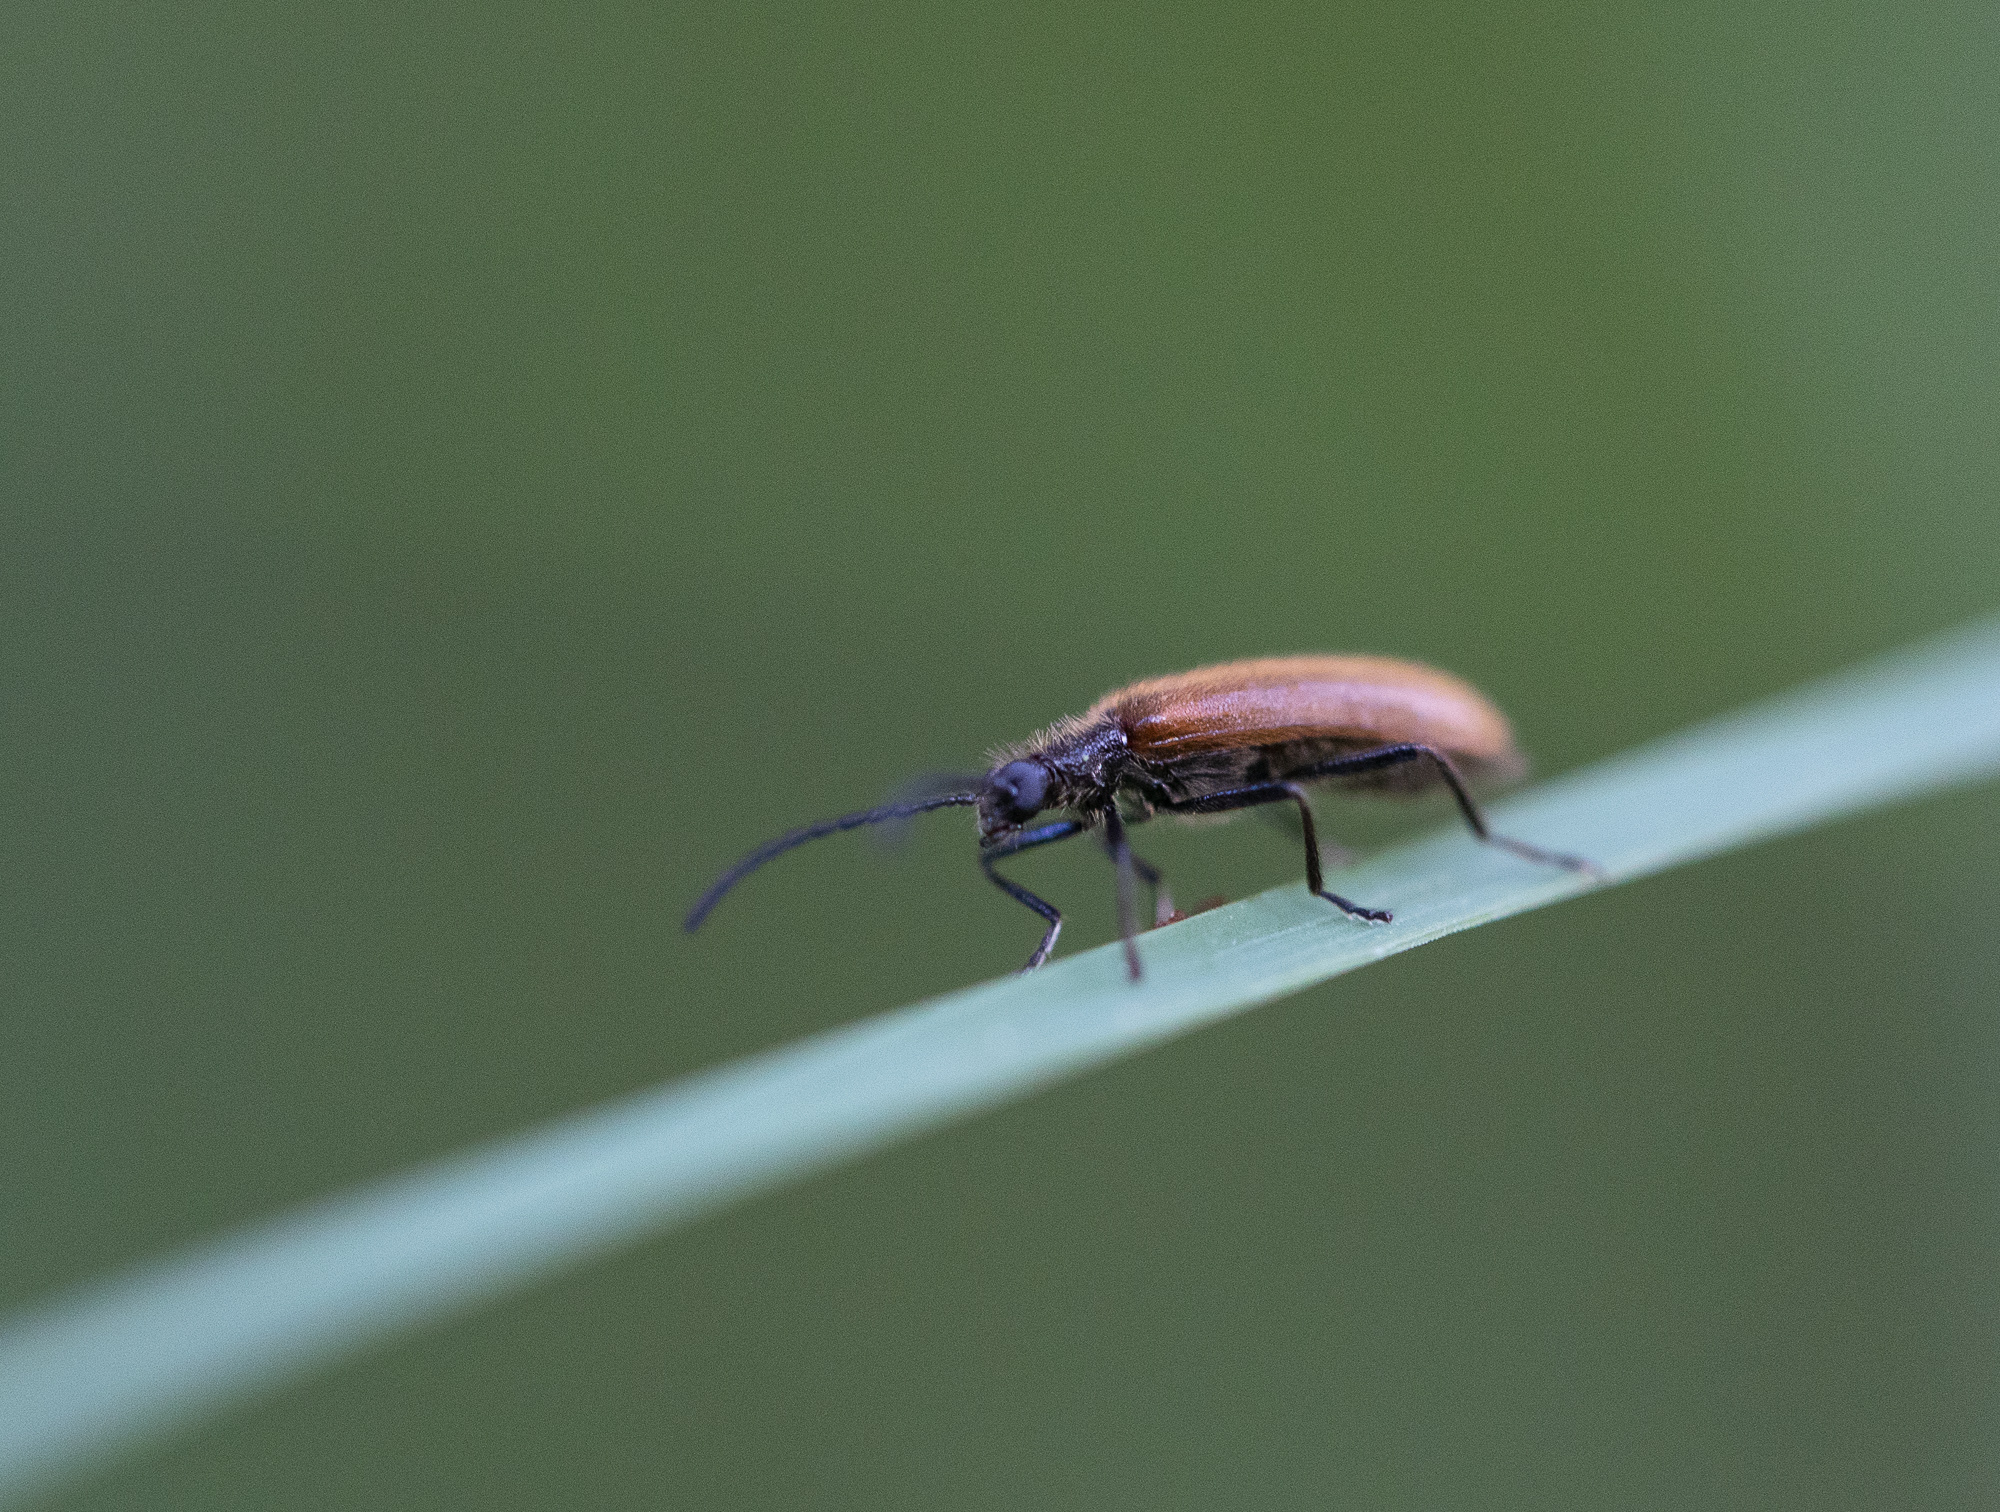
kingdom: Animalia
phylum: Arthropoda
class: Insecta
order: Coleoptera
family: Tenebrionidae
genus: Lagria
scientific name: Lagria hirta
